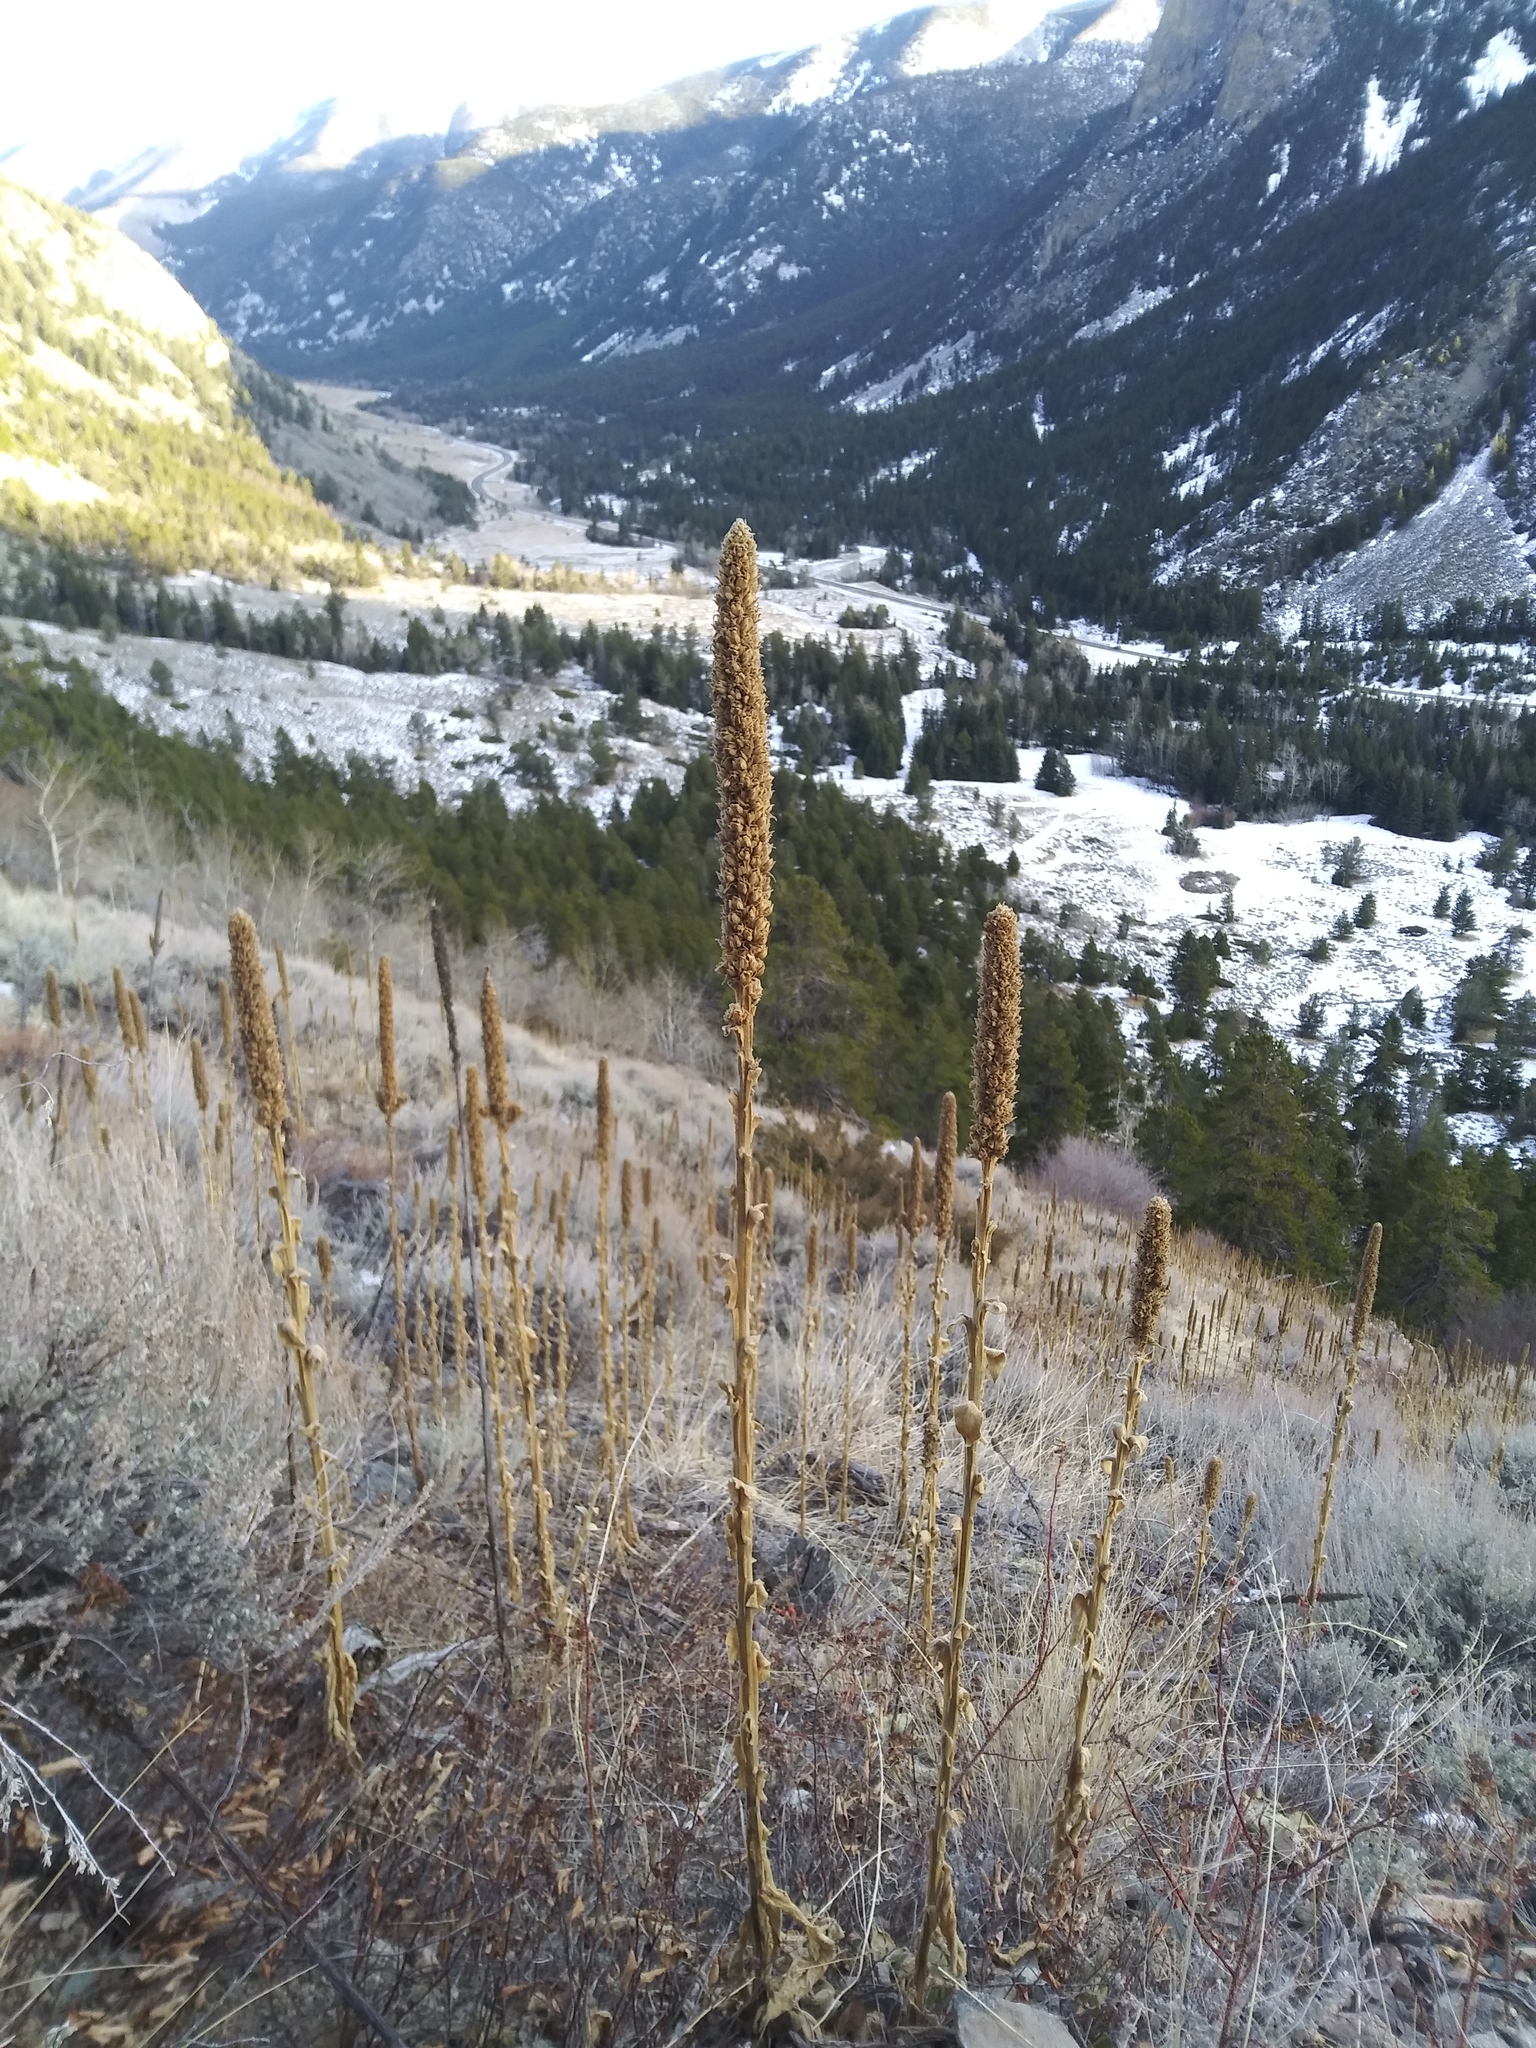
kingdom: Plantae
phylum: Tracheophyta
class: Magnoliopsida
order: Lamiales
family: Scrophulariaceae
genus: Verbascum
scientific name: Verbascum thapsus
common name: Common mullein
